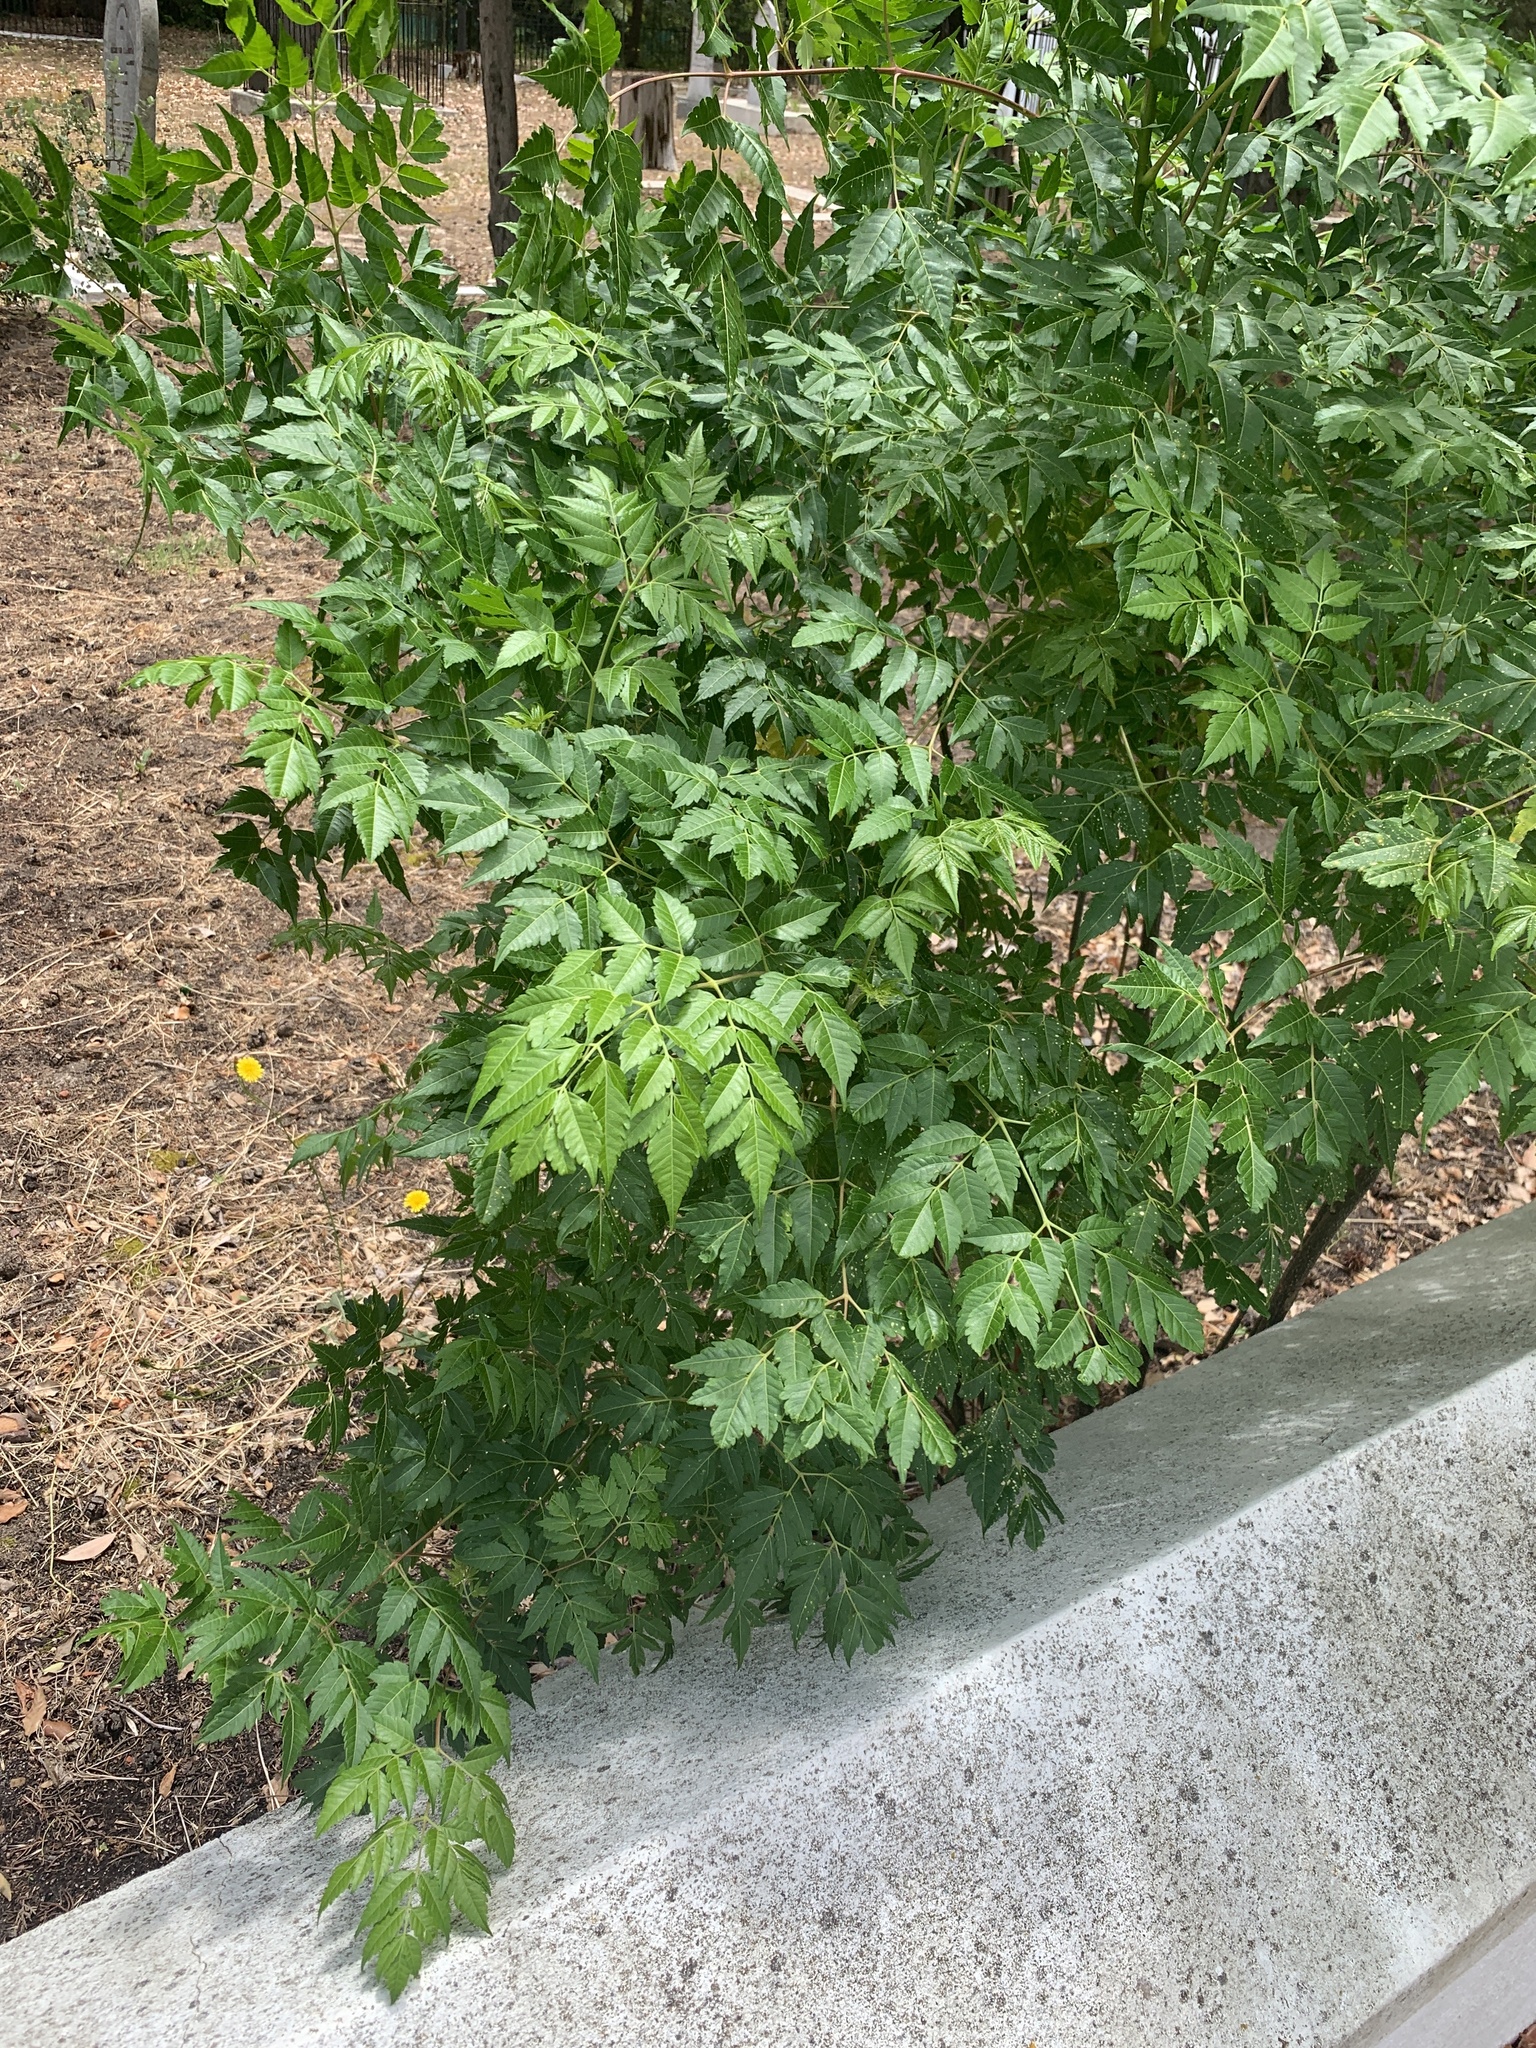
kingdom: Plantae
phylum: Tracheophyta
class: Magnoliopsida
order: Sapindales
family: Meliaceae
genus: Melia
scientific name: Melia azedarach
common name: Chinaberrytree
